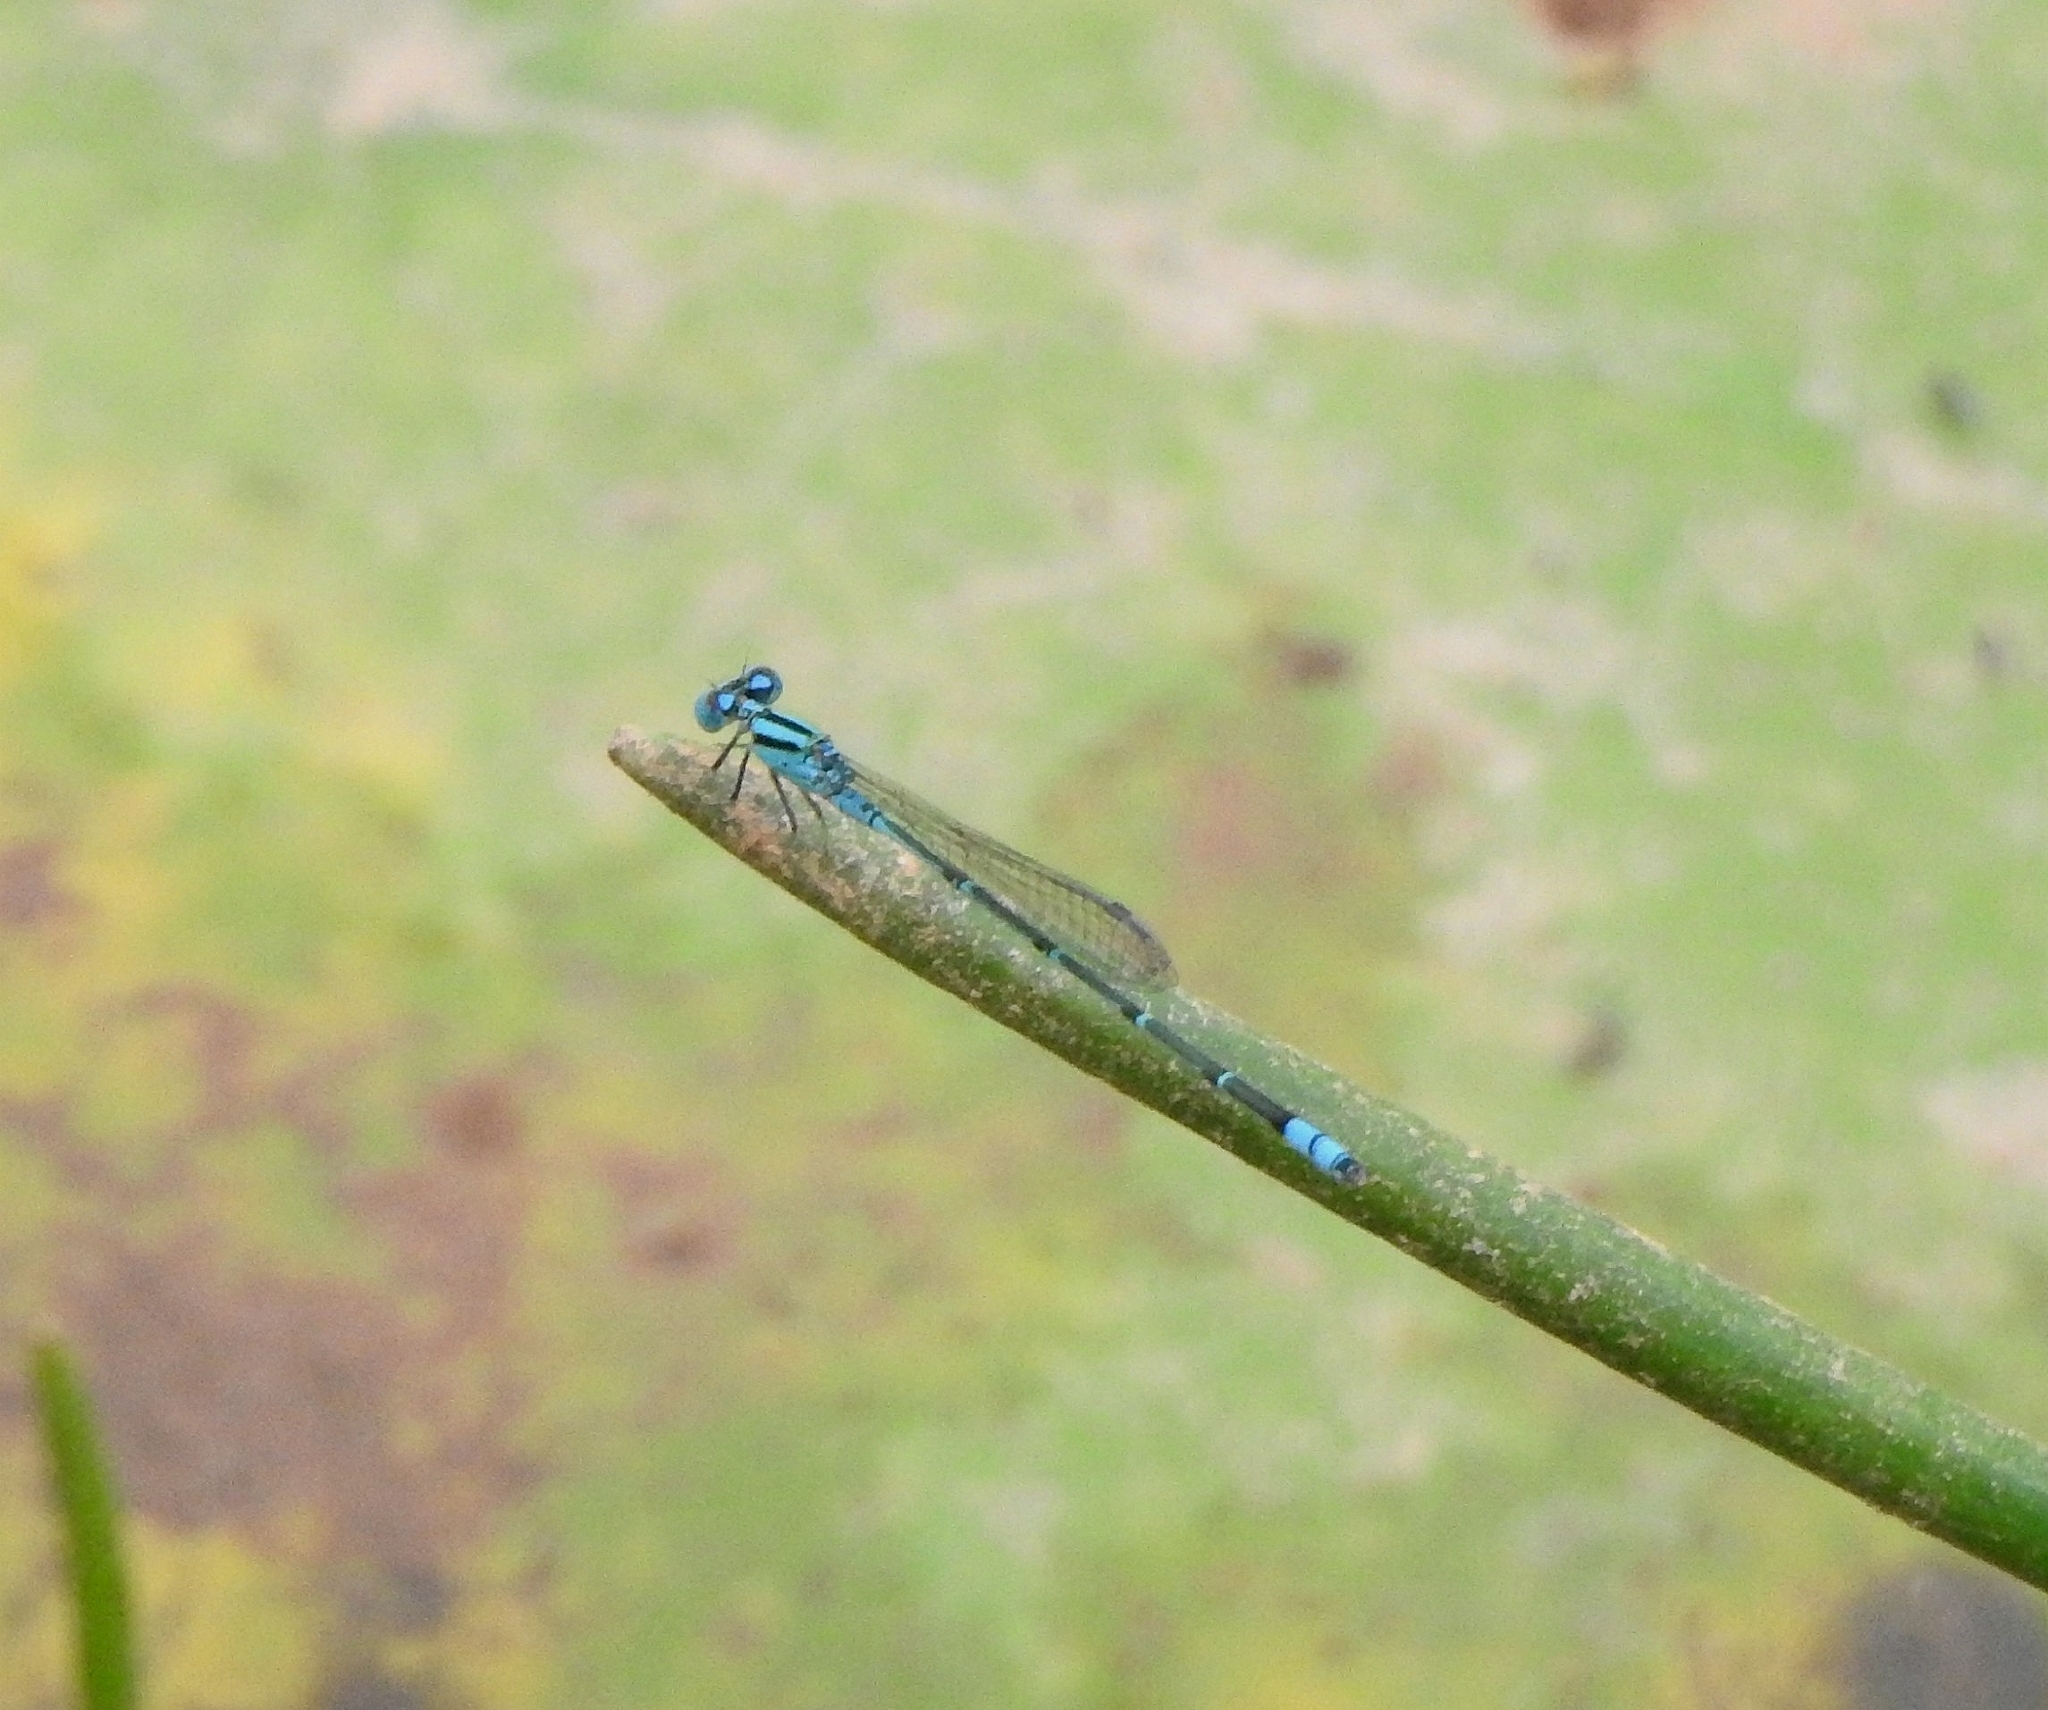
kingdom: Animalia
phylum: Arthropoda
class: Insecta
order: Odonata
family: Coenagrionidae
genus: Pseudagrion
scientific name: Pseudagrion microcephalum
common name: Blue riverdamsel
